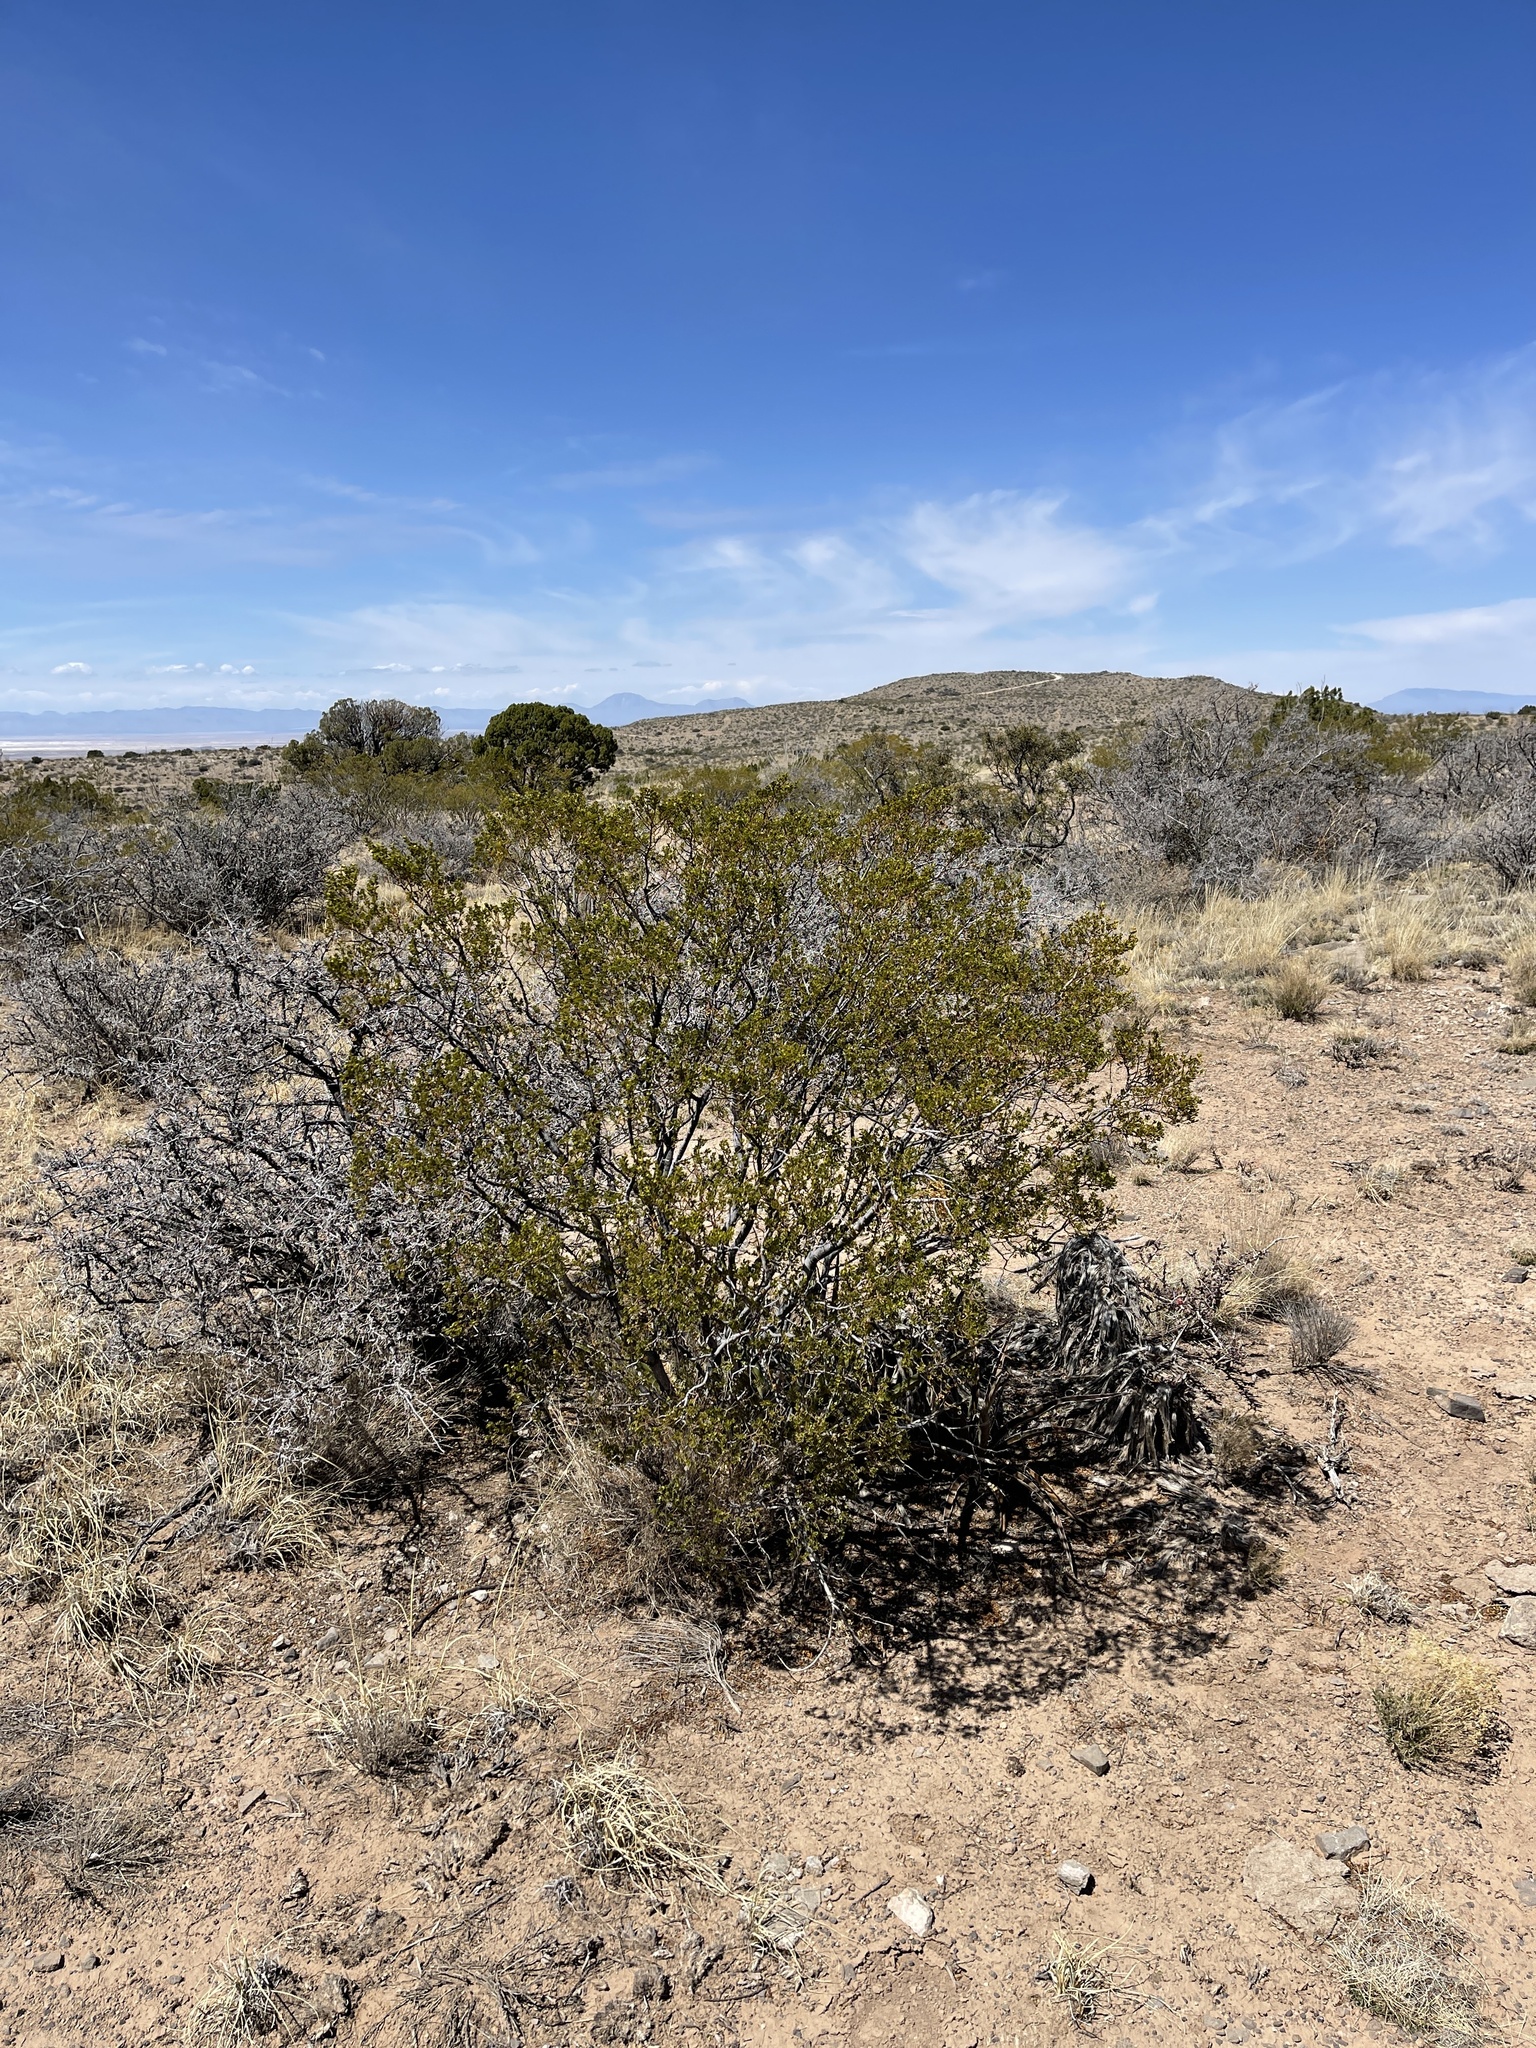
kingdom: Plantae
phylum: Tracheophyta
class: Magnoliopsida
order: Zygophyllales
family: Zygophyllaceae
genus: Larrea
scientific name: Larrea tridentata
